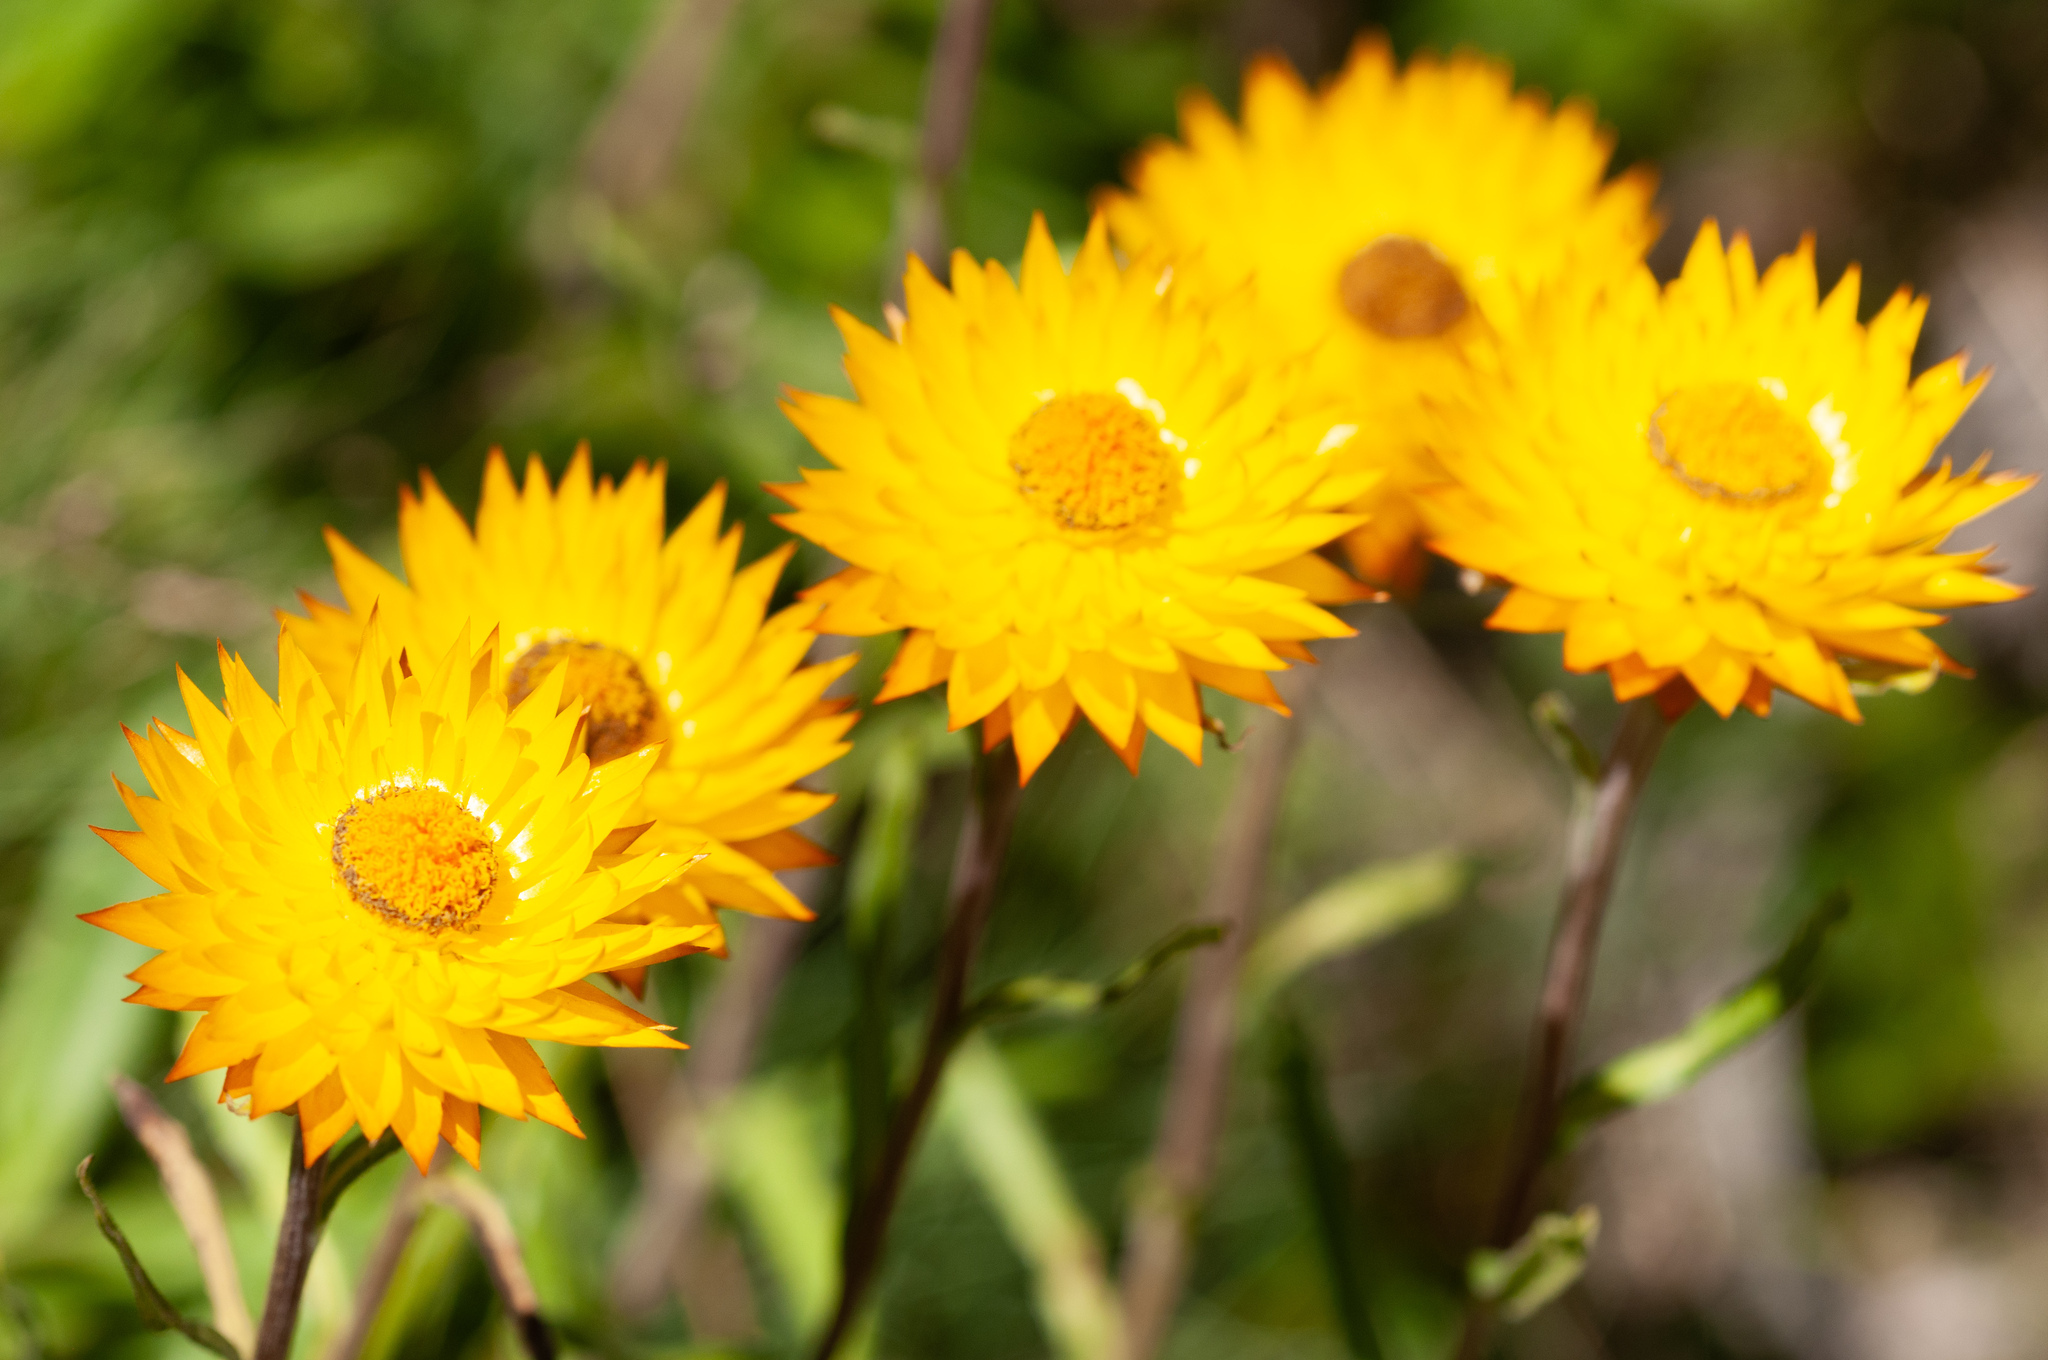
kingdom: Plantae
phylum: Tracheophyta
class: Magnoliopsida
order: Asterales
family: Asteraceae
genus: Xerochrysum
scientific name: Xerochrysum
